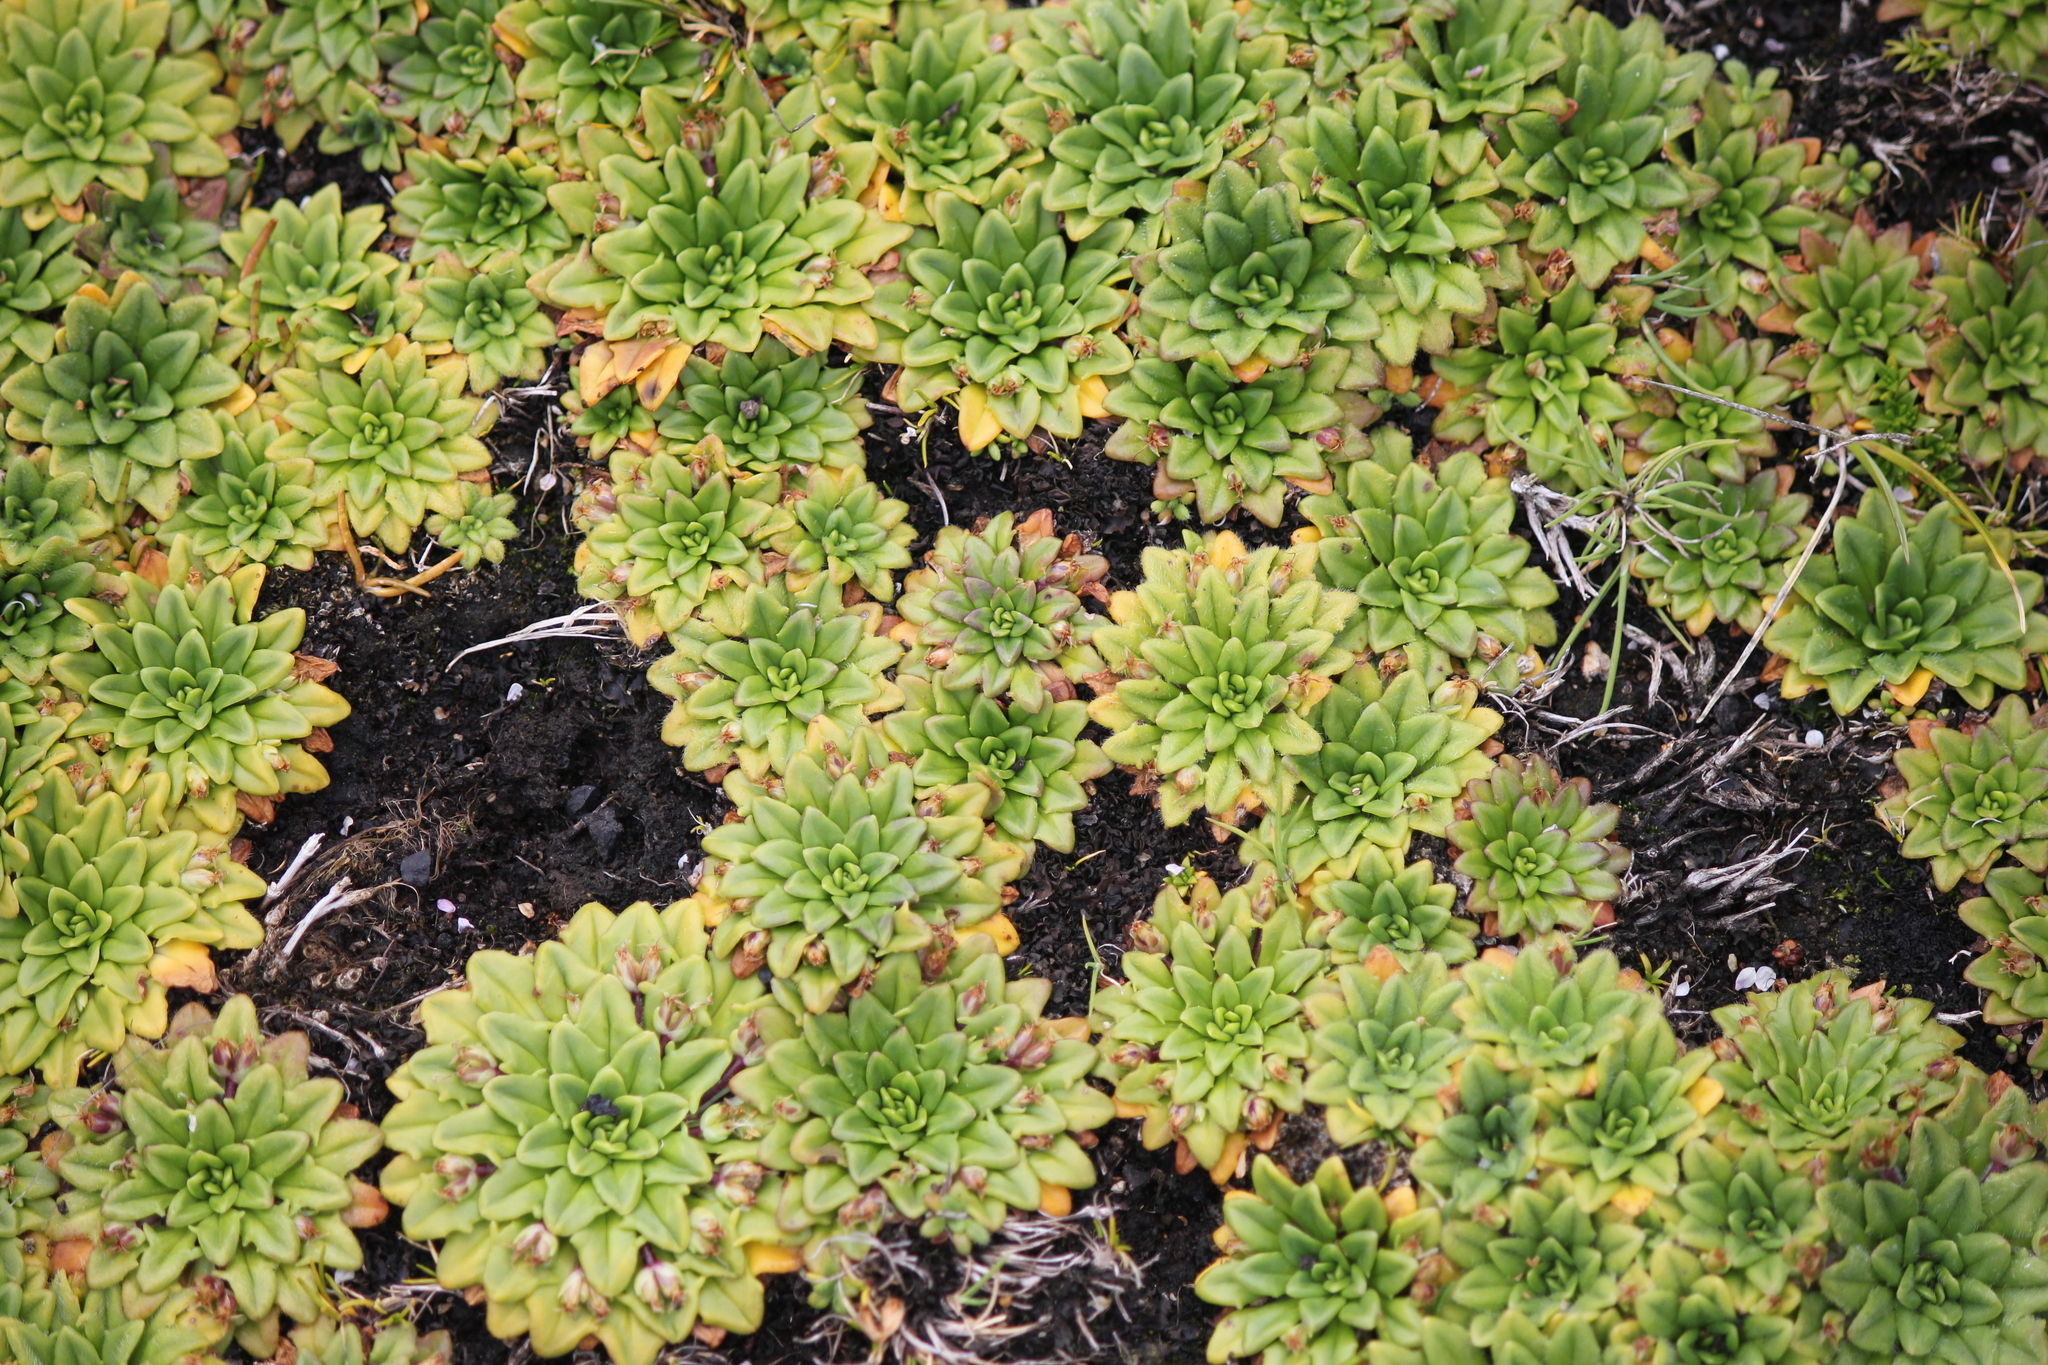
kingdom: Plantae
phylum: Tracheophyta
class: Magnoliopsida
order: Lamiales
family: Plantaginaceae
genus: Plantago
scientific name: Plantago brownii
